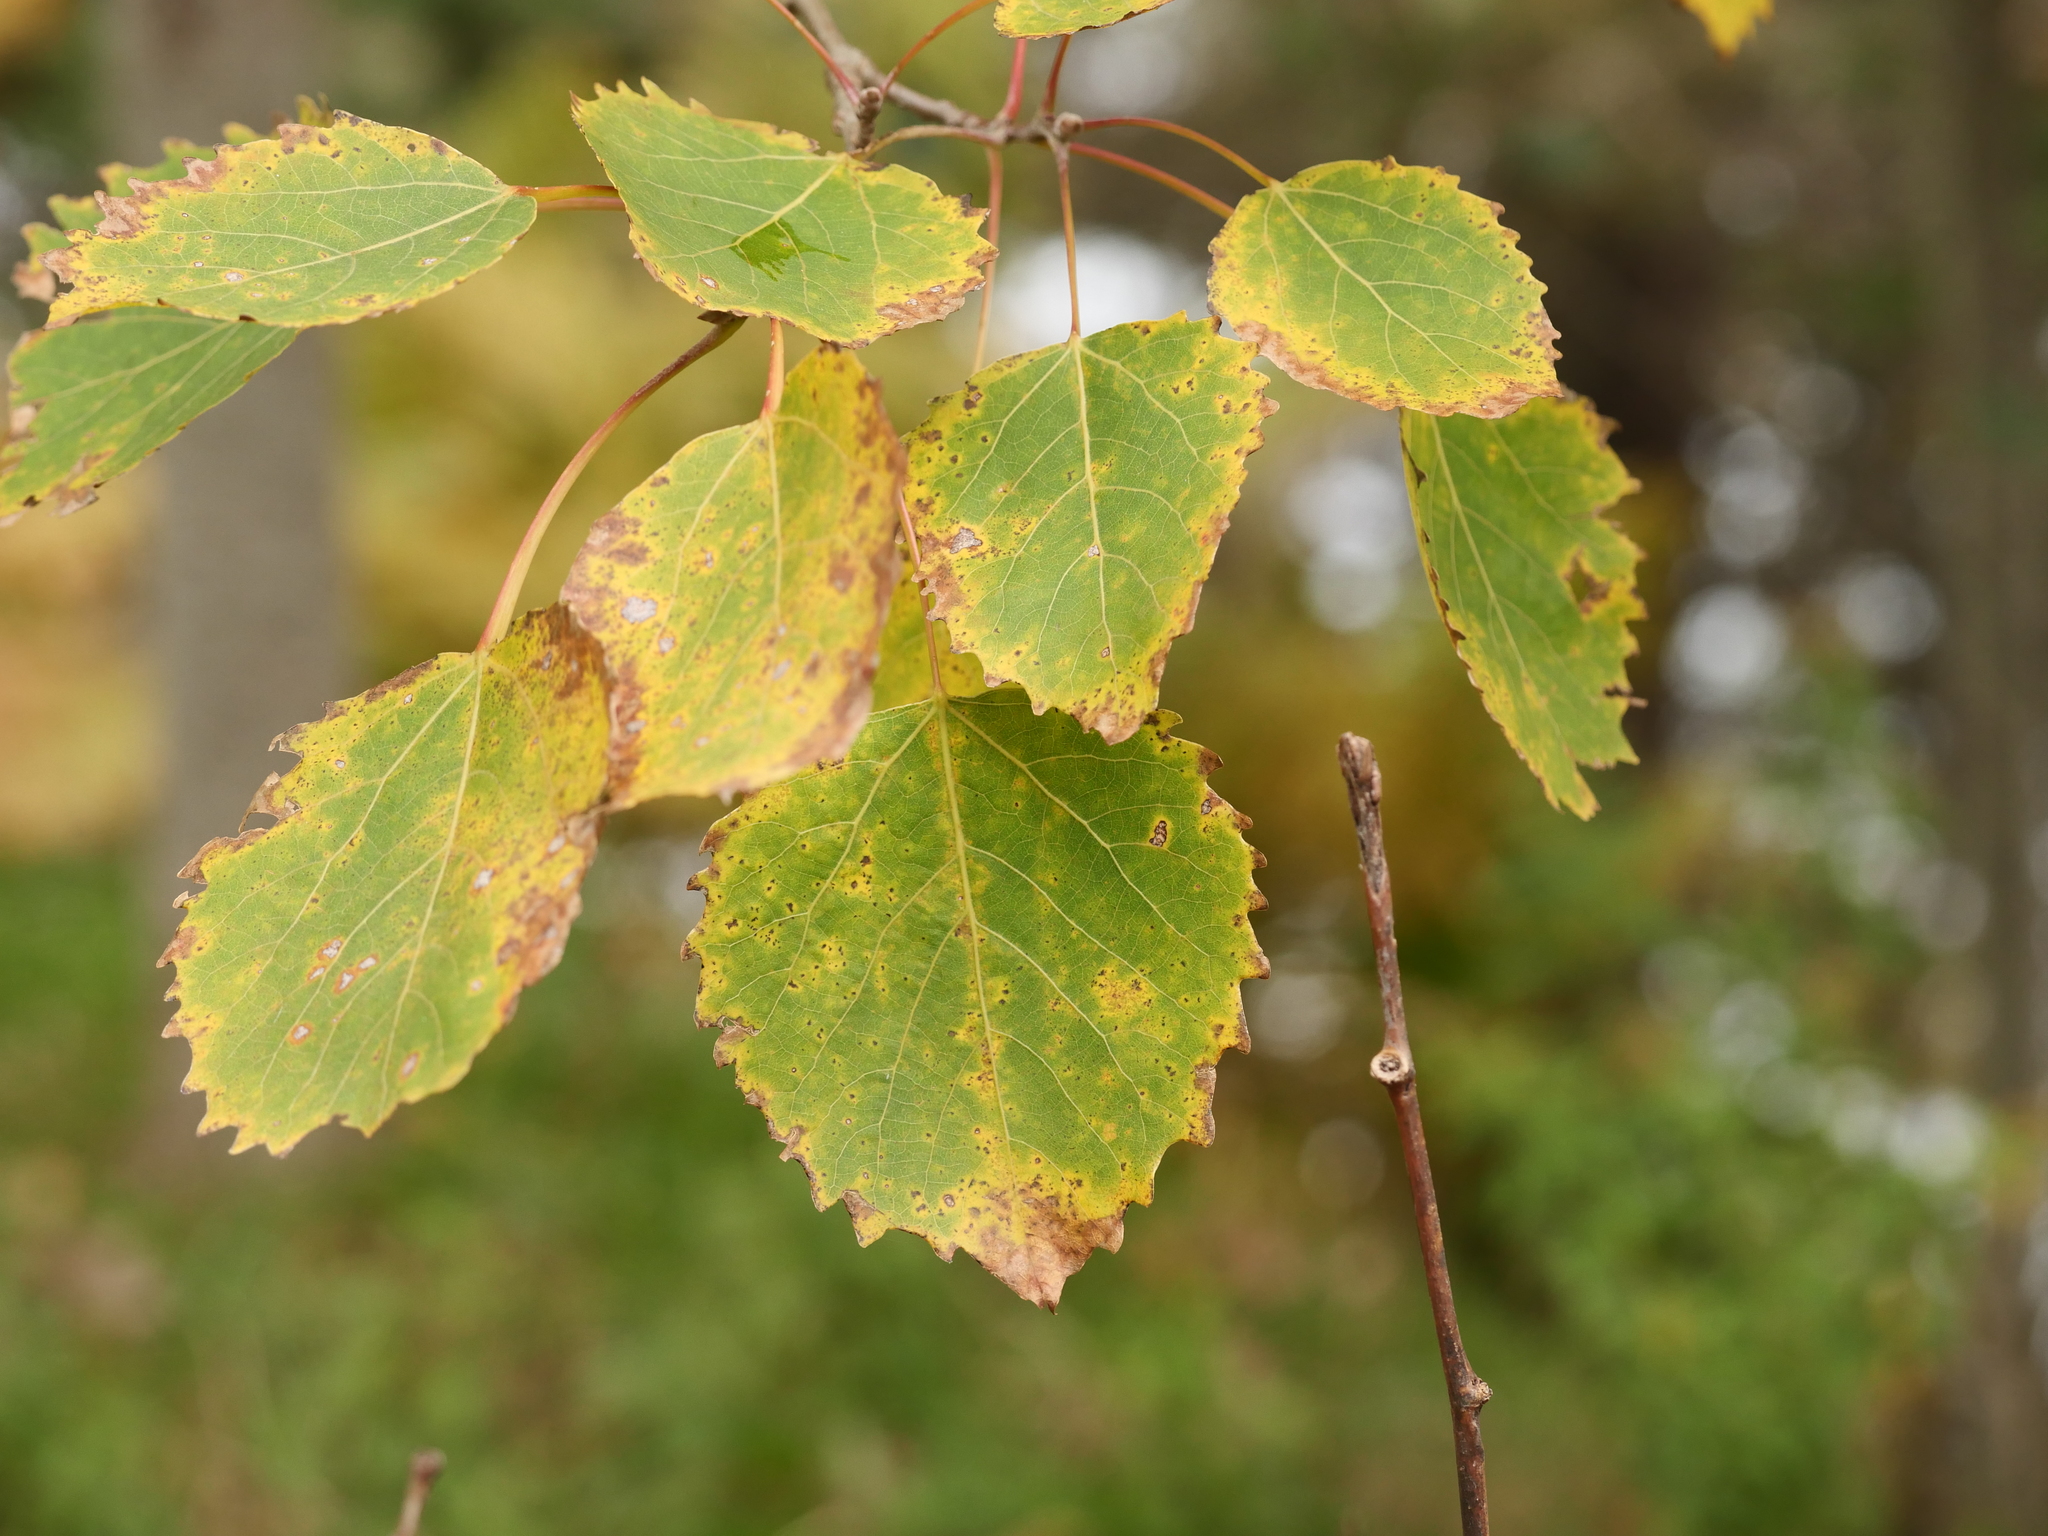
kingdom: Plantae
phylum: Tracheophyta
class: Magnoliopsida
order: Malpighiales
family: Salicaceae
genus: Populus
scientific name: Populus grandidentata
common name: Bigtooth aspen
